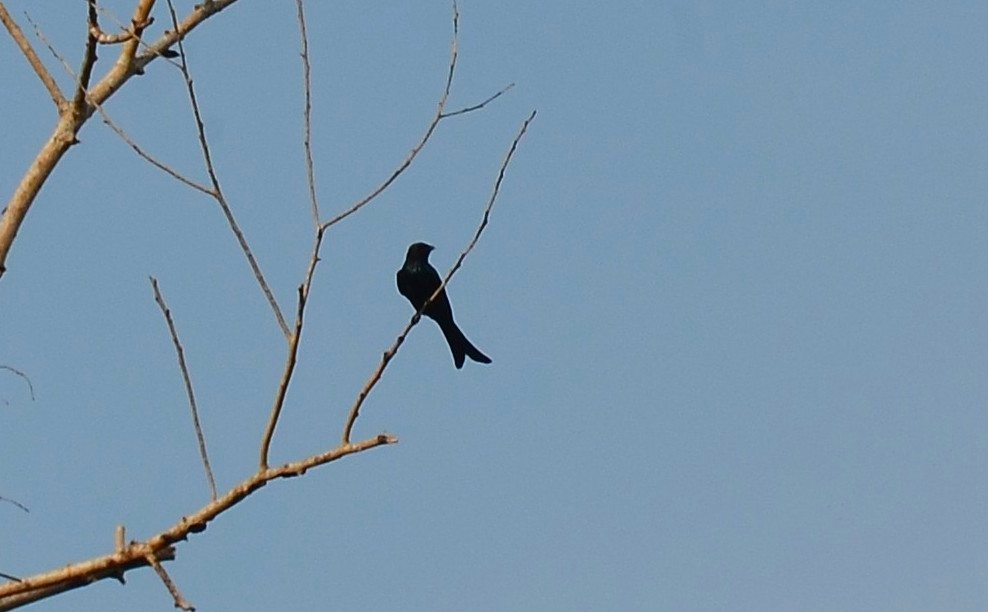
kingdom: Animalia
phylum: Chordata
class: Aves
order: Passeriformes
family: Dicruridae
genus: Dicrurus
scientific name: Dicrurus macrocercus
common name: Black drongo
